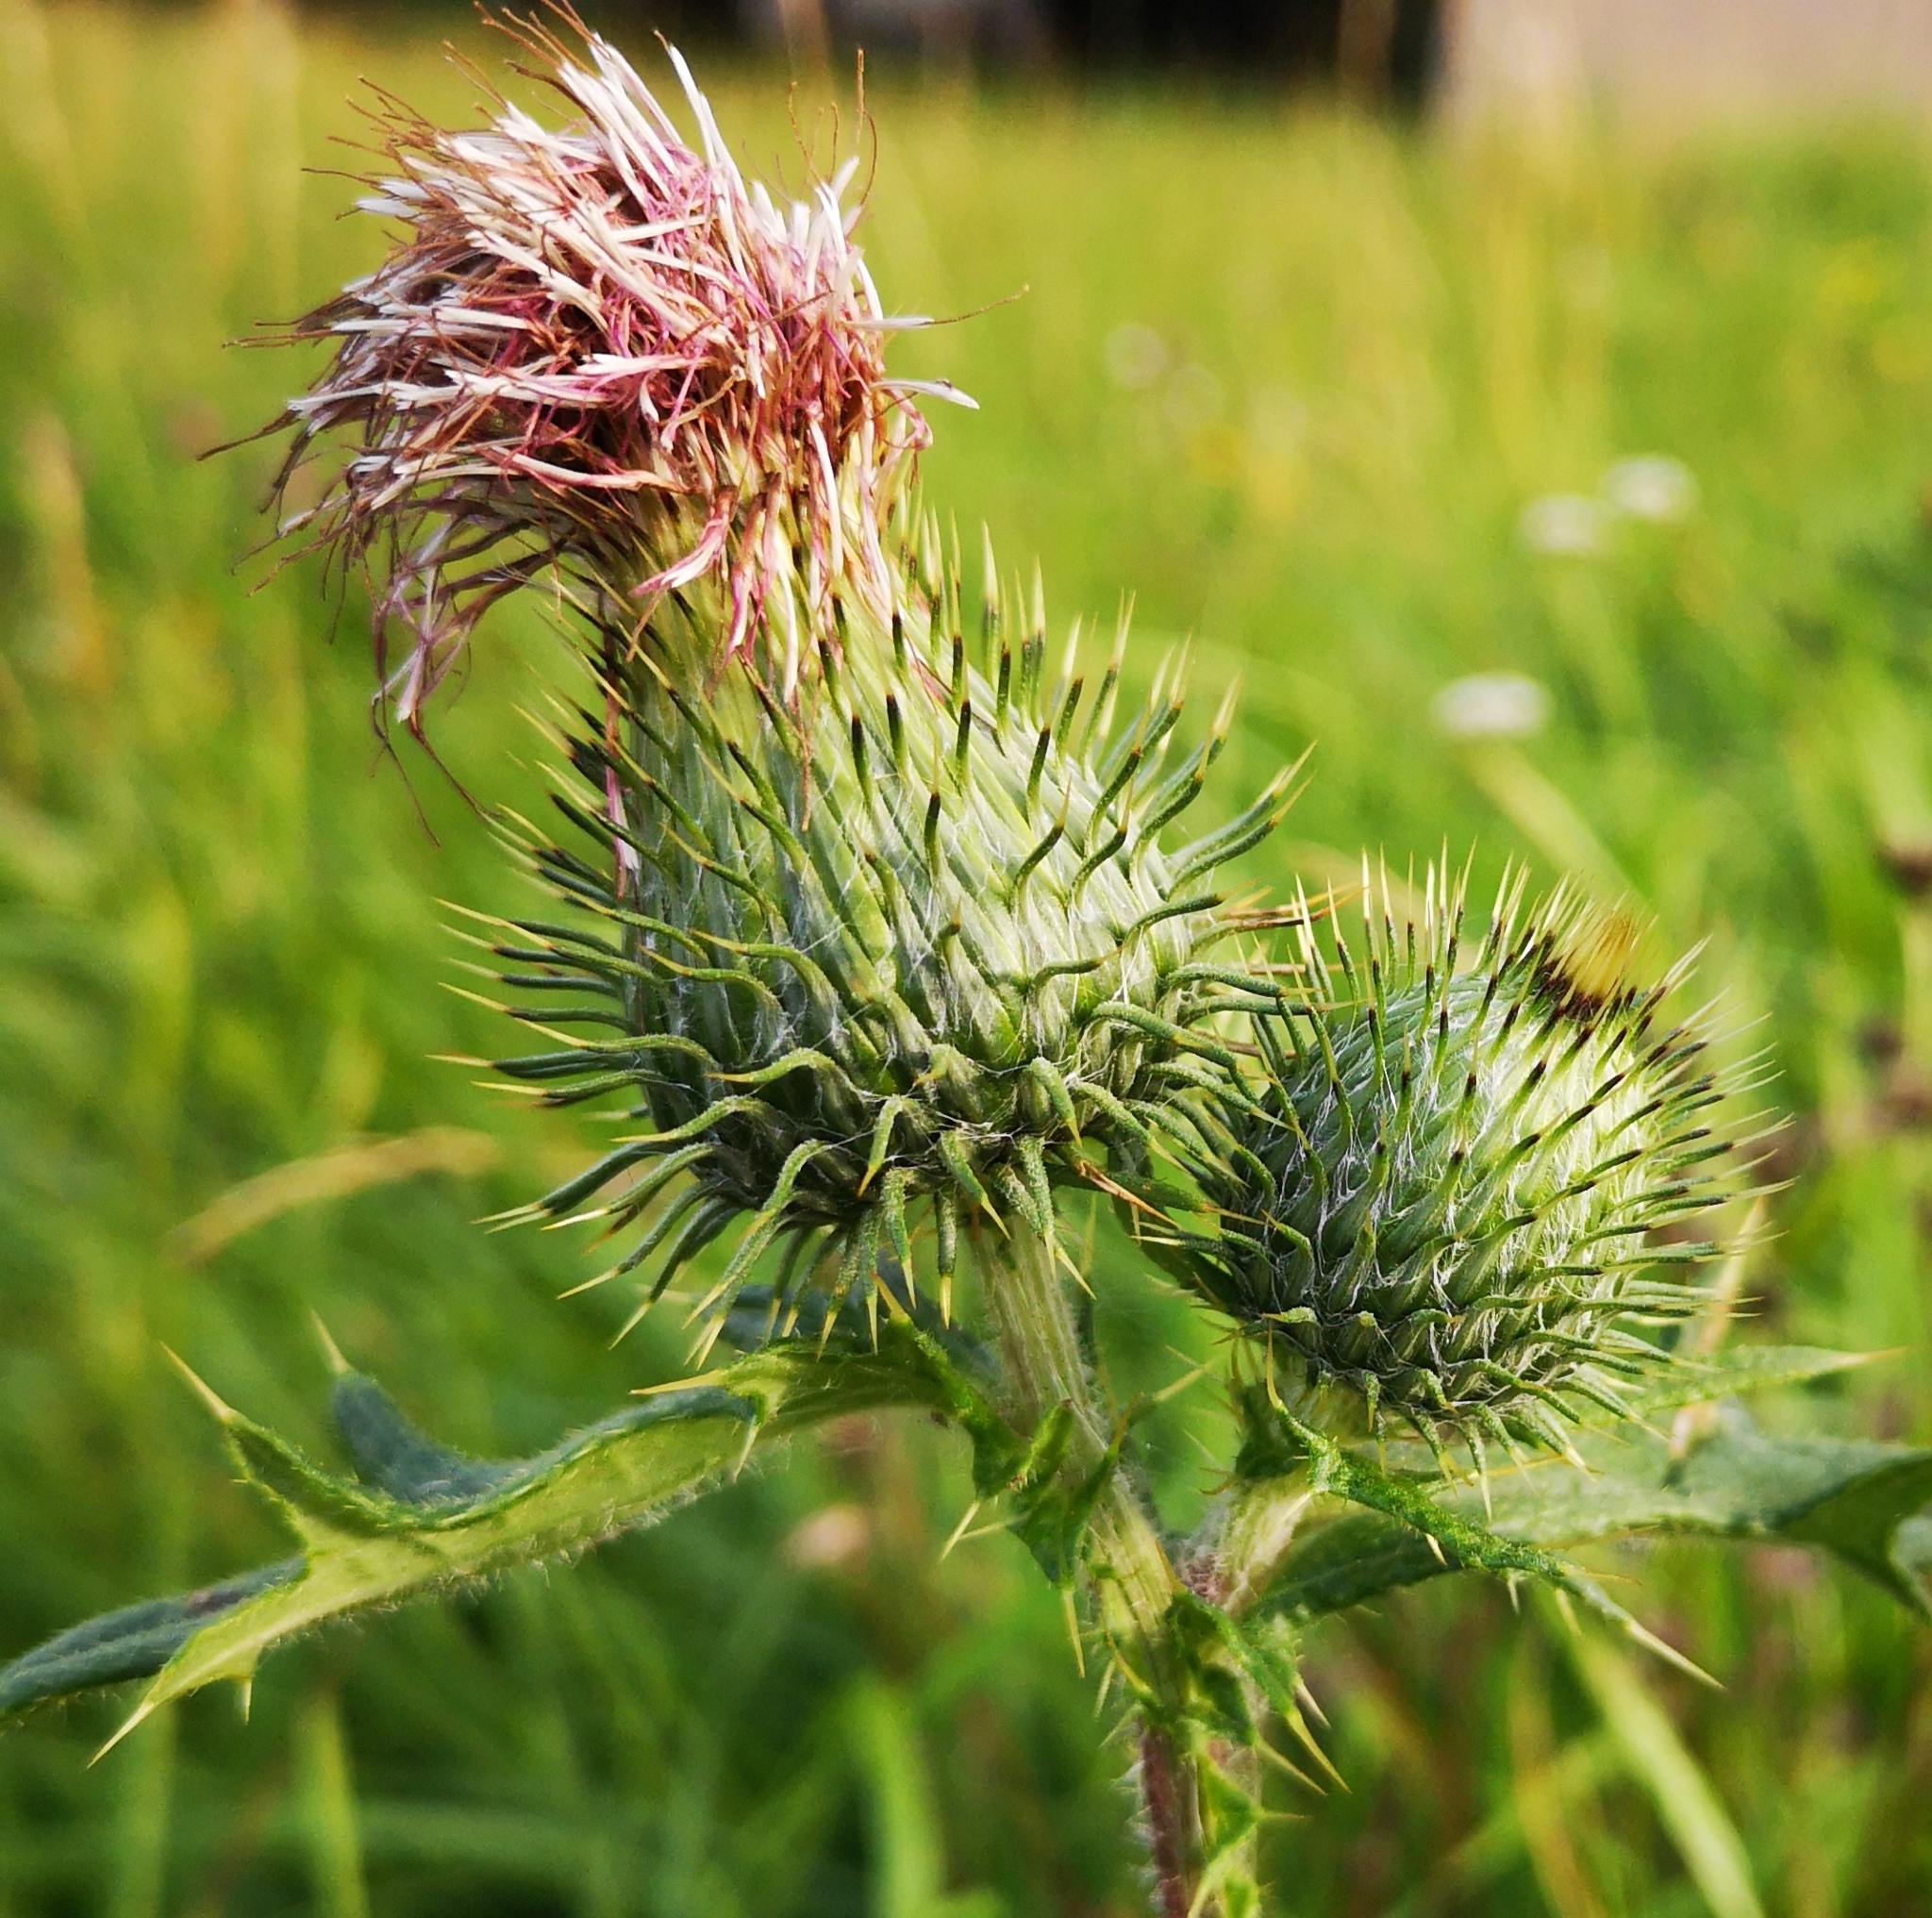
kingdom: Plantae
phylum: Tracheophyta
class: Magnoliopsida
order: Asterales
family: Asteraceae
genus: Cirsium
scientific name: Cirsium vulgare
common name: Bull thistle
